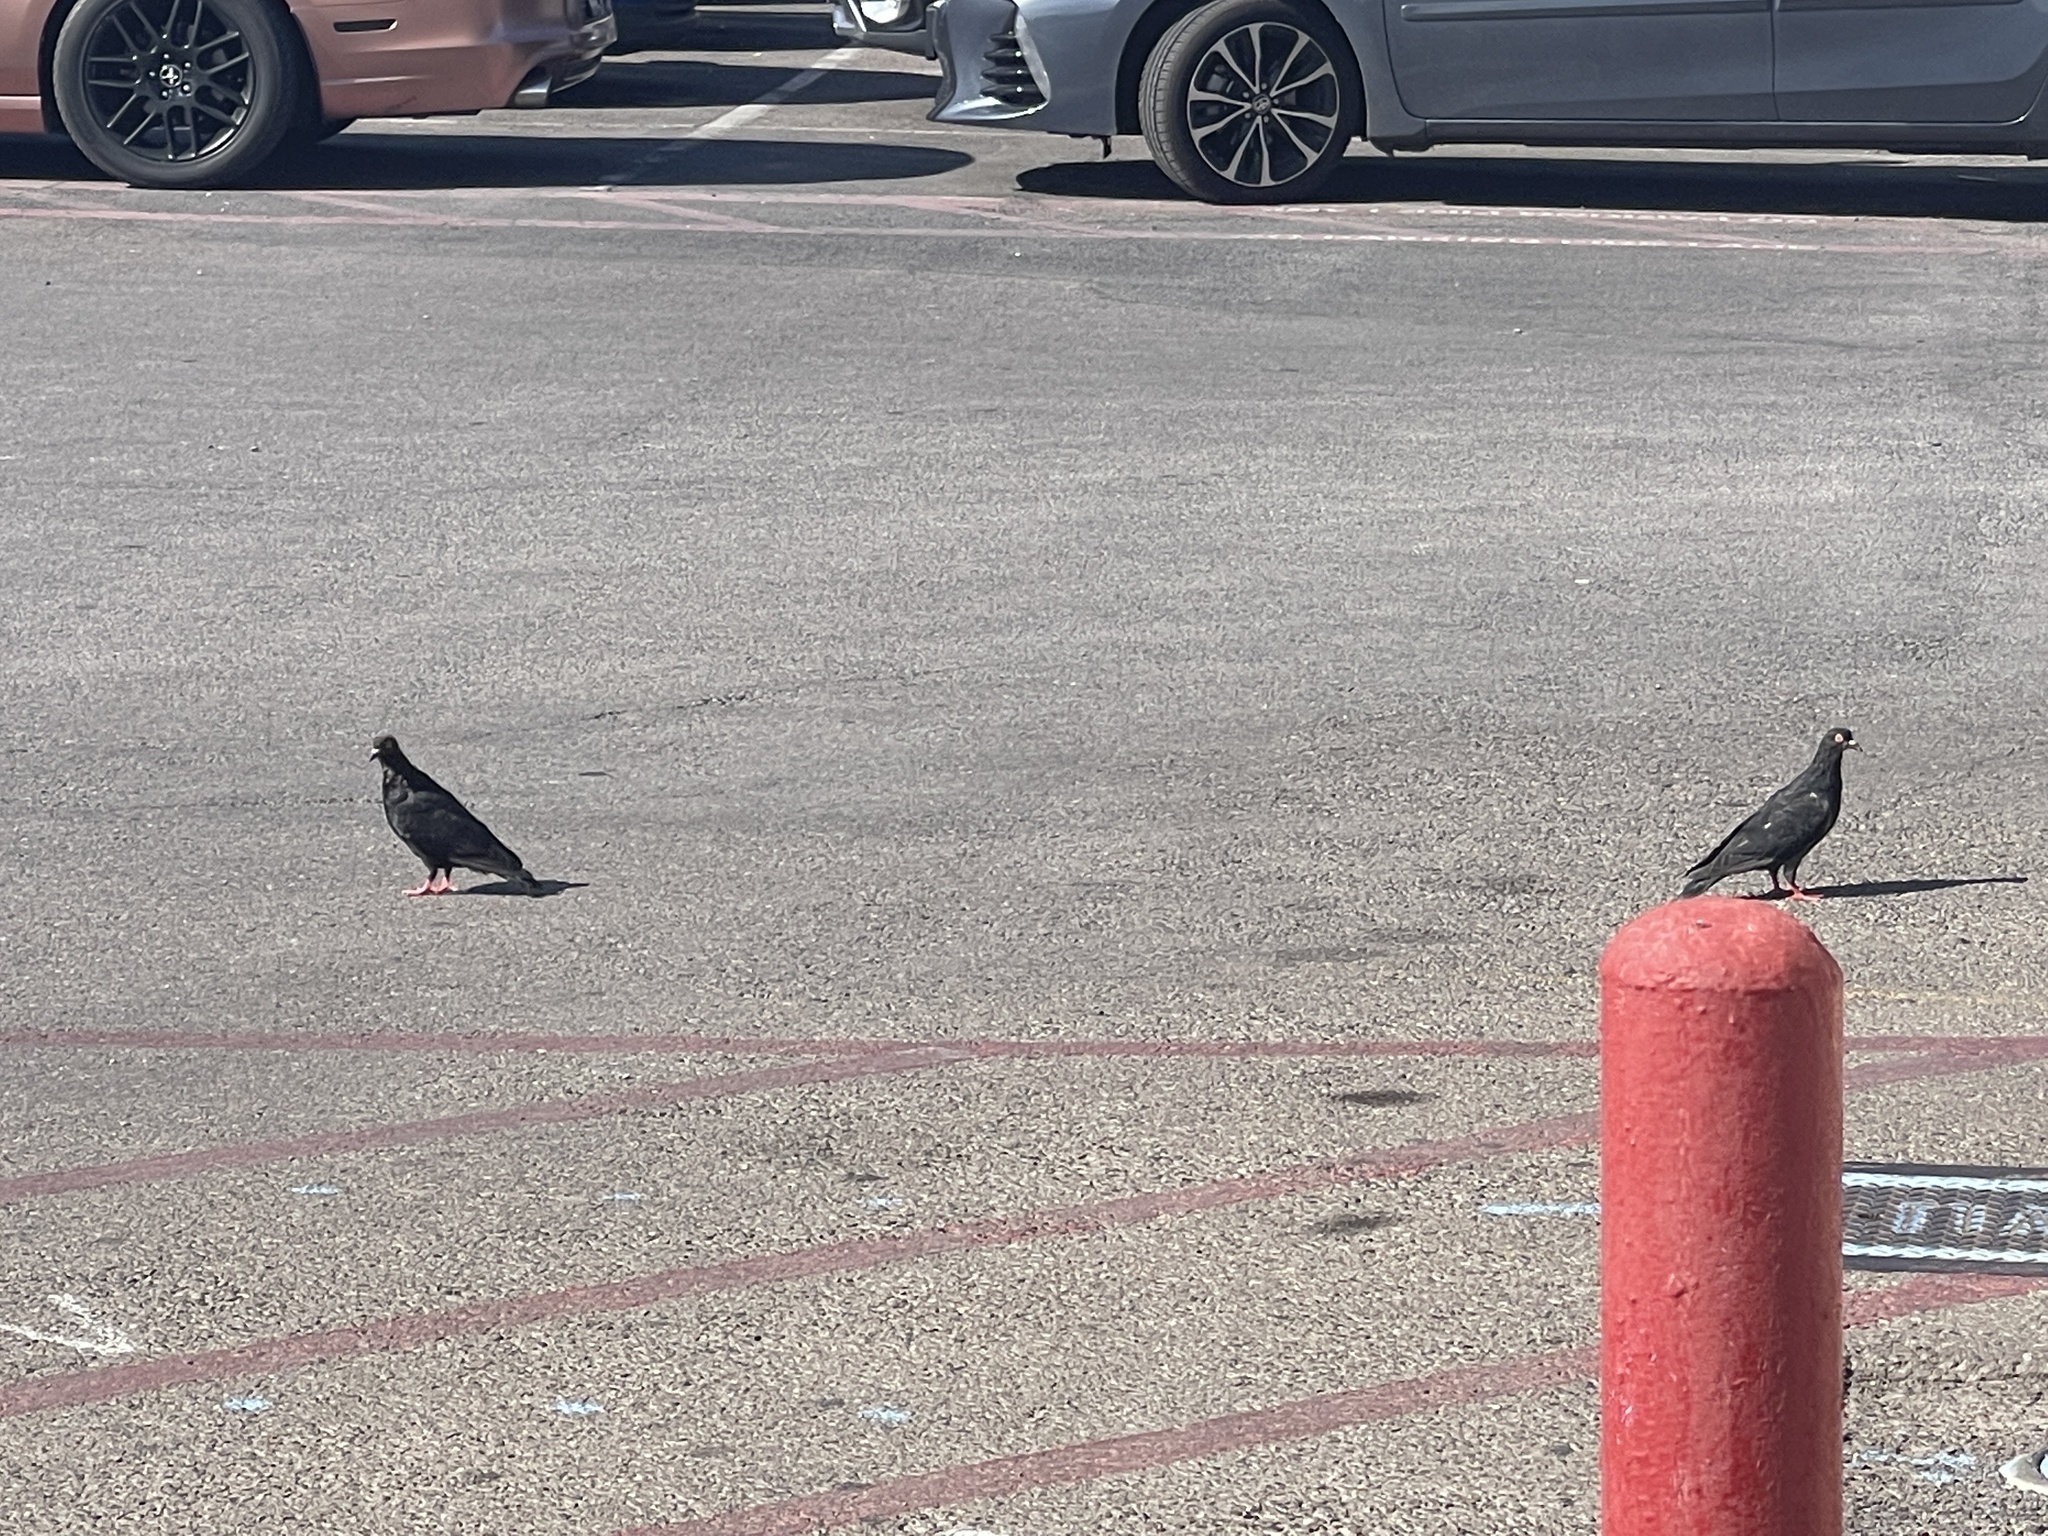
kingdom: Animalia
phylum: Chordata
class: Aves
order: Columbiformes
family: Columbidae
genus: Columba
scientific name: Columba livia
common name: Rock pigeon
